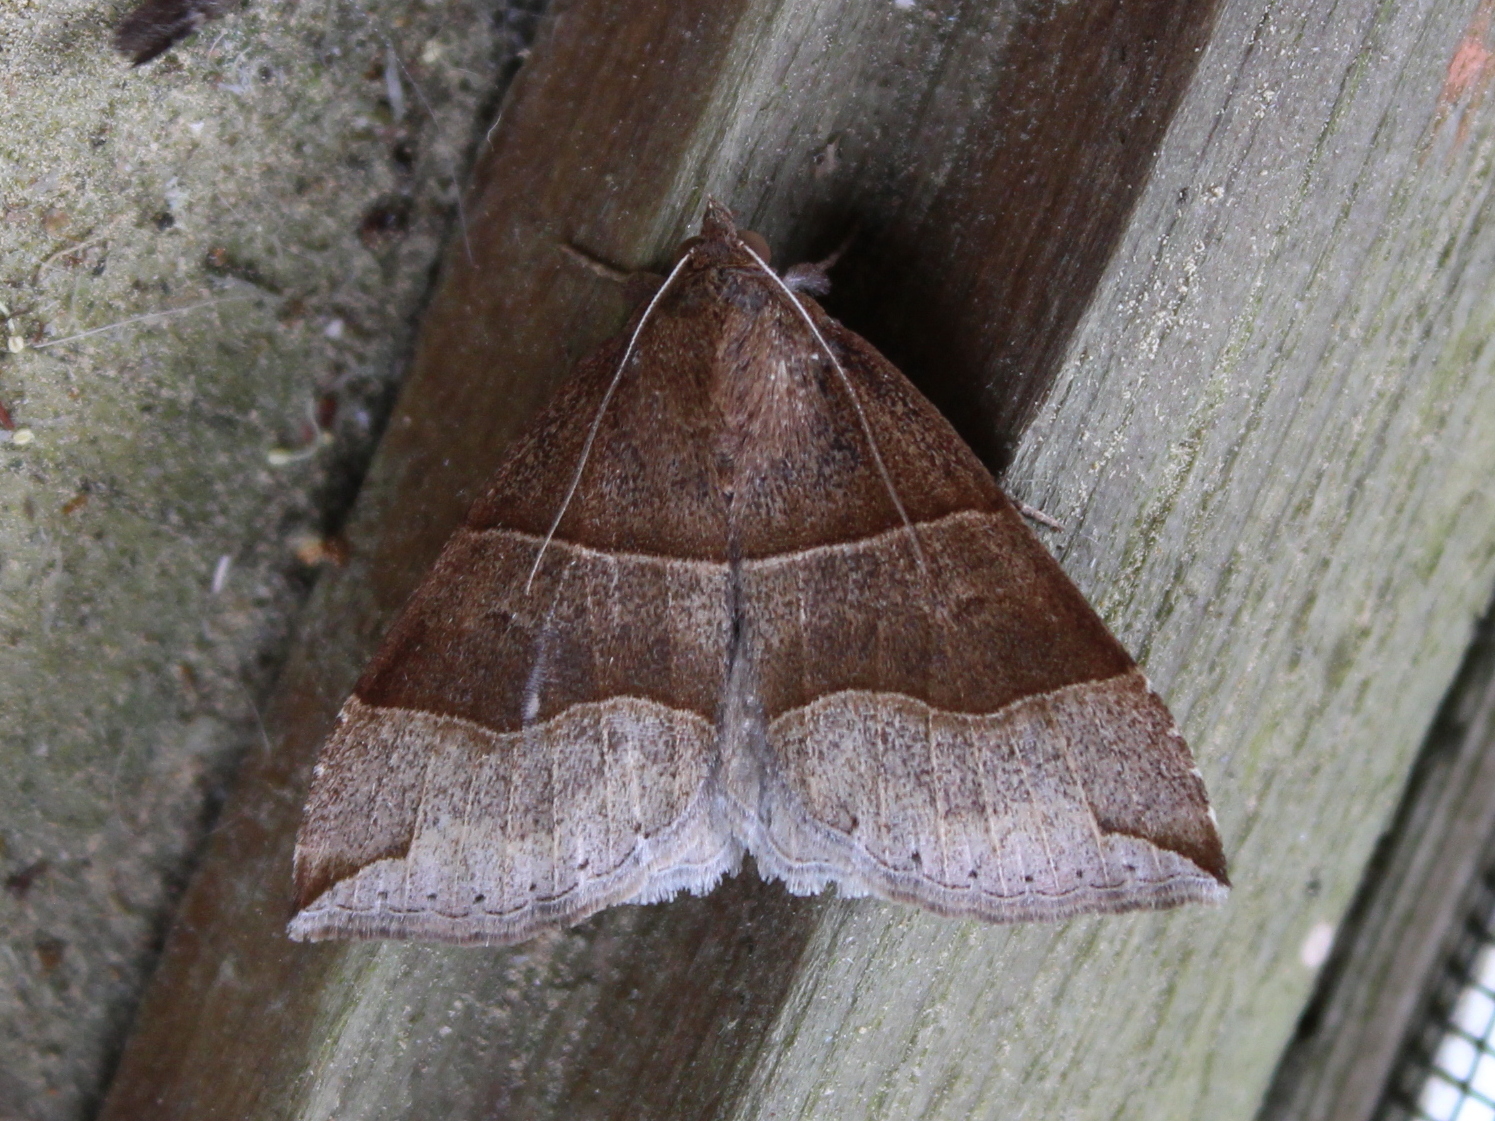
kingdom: Animalia
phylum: Arthropoda
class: Insecta
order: Lepidoptera
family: Erebidae
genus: Parallelia
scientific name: Parallelia bistriaris
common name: Maple looper moth
